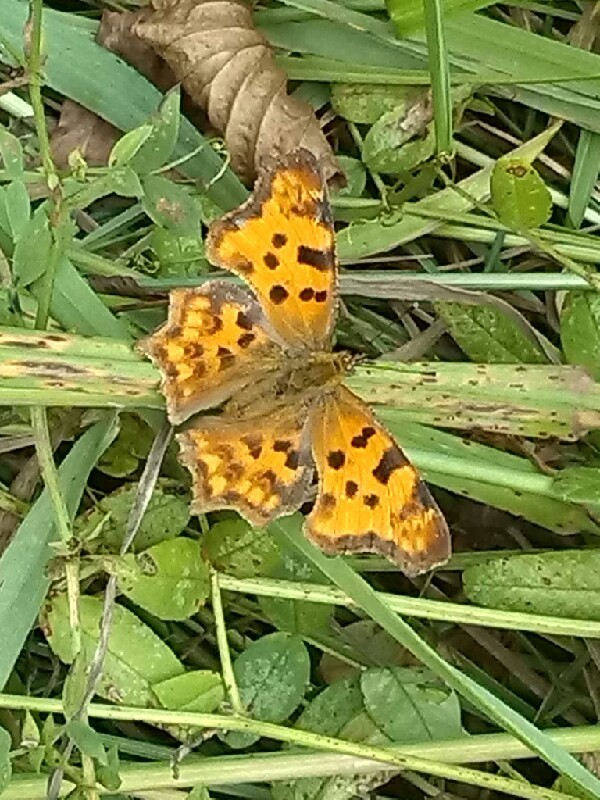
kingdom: Animalia
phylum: Arthropoda
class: Insecta
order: Lepidoptera
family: Nymphalidae
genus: Polygonia
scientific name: Polygonia c-album
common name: Comma
